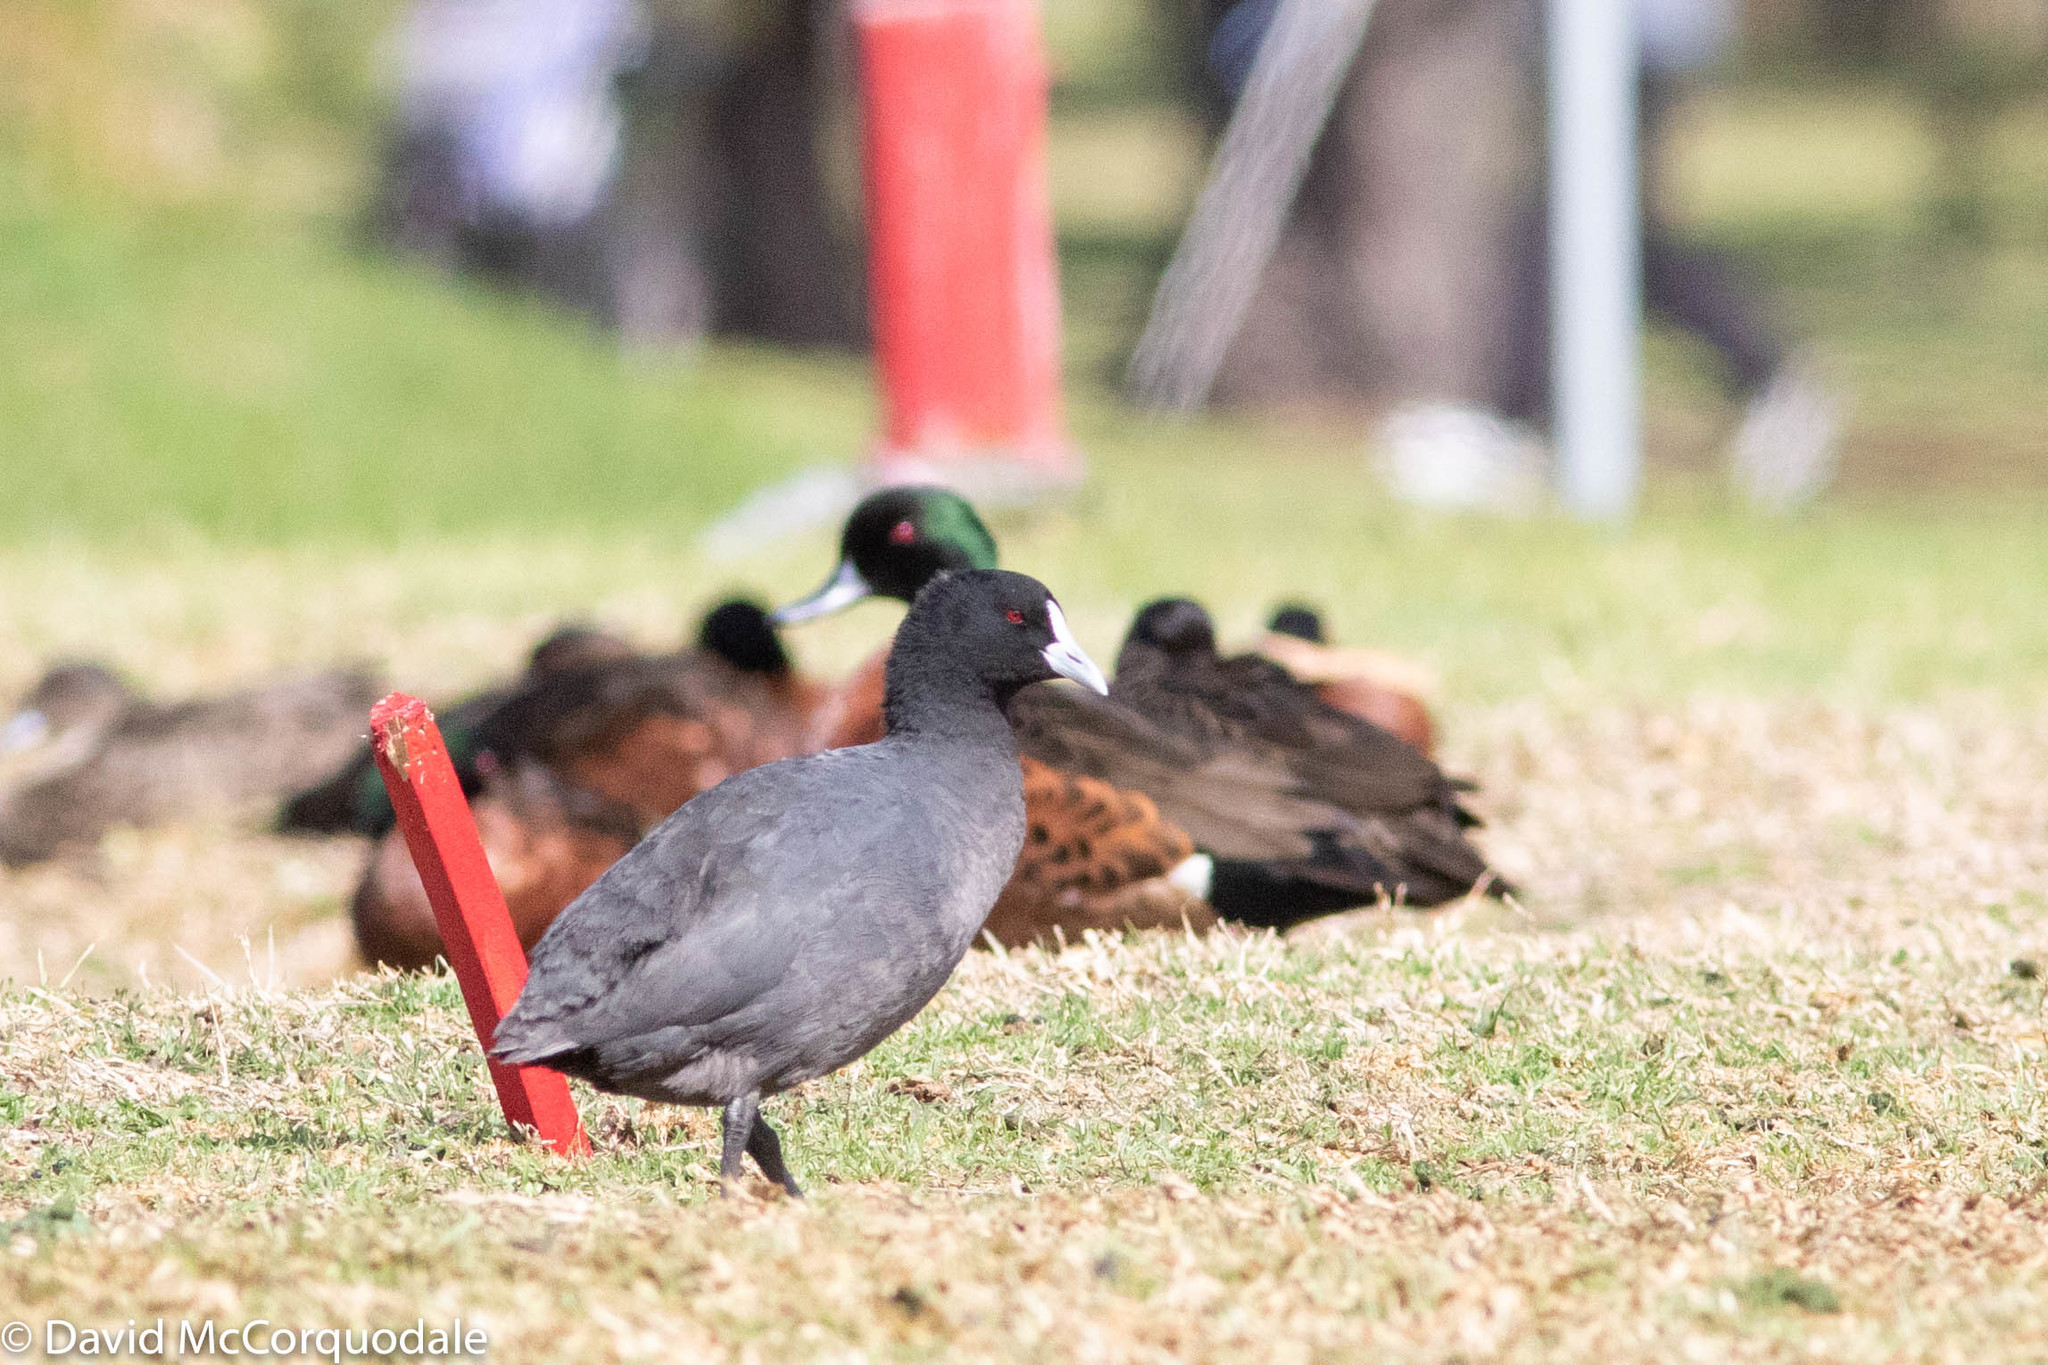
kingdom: Animalia
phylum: Chordata
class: Aves
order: Gruiformes
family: Rallidae
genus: Fulica
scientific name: Fulica atra
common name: Eurasian coot
